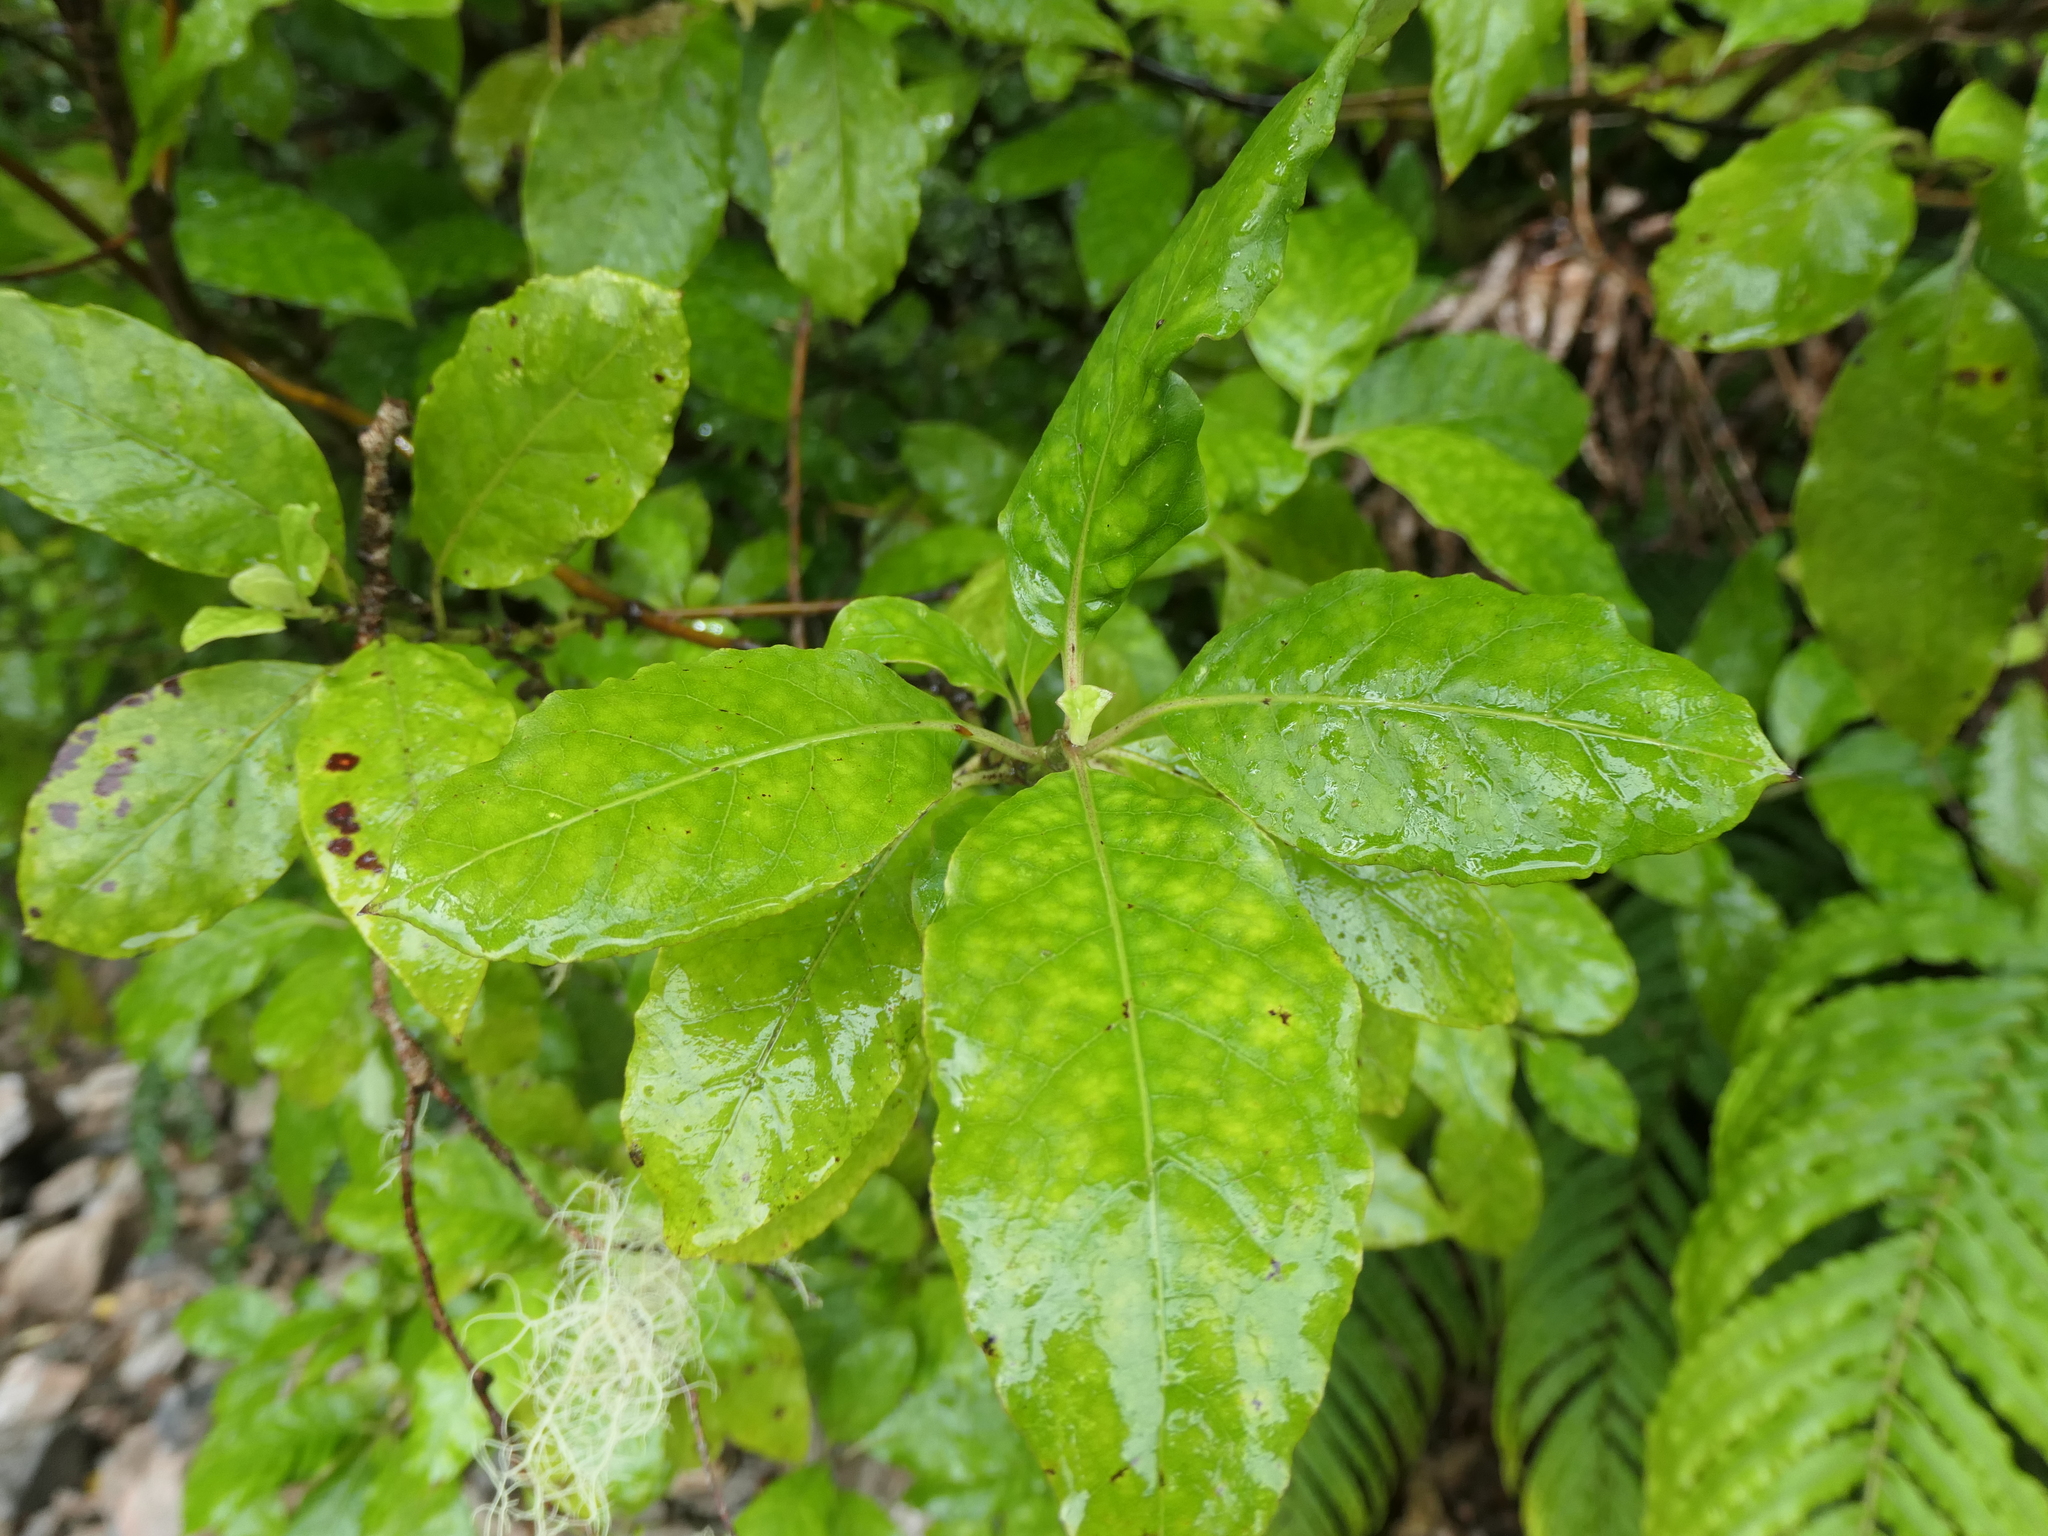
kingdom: Plantae
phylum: Tracheophyta
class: Magnoliopsida
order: Gentianales
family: Rubiaceae
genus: Coprosma
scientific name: Coprosma autumnalis
